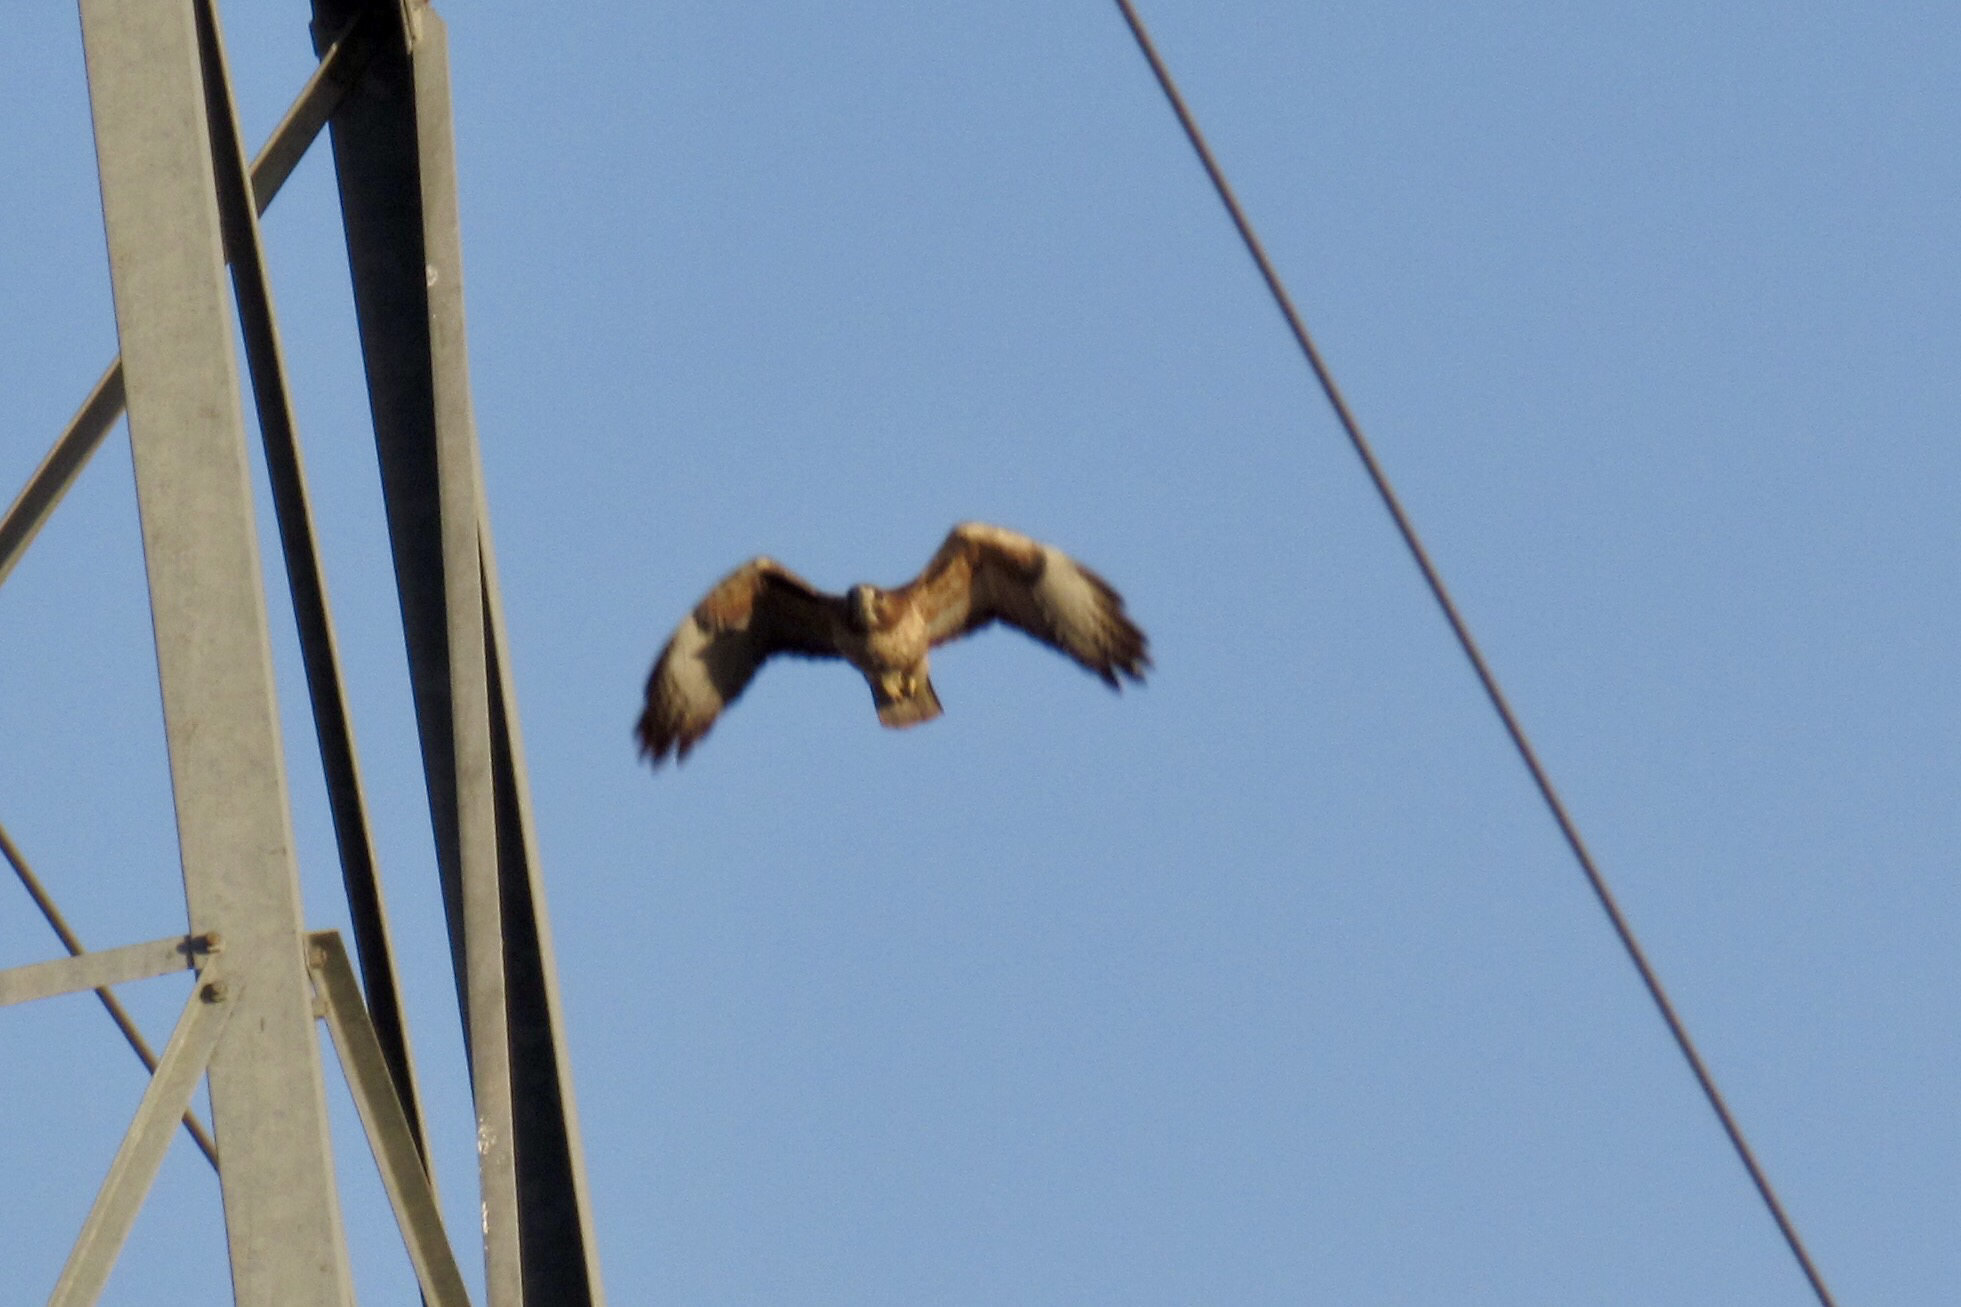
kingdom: Animalia
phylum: Chordata
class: Aves
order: Accipitriformes
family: Accipitridae
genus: Buteo
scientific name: Buteo jamaicensis
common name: Red-tailed hawk
